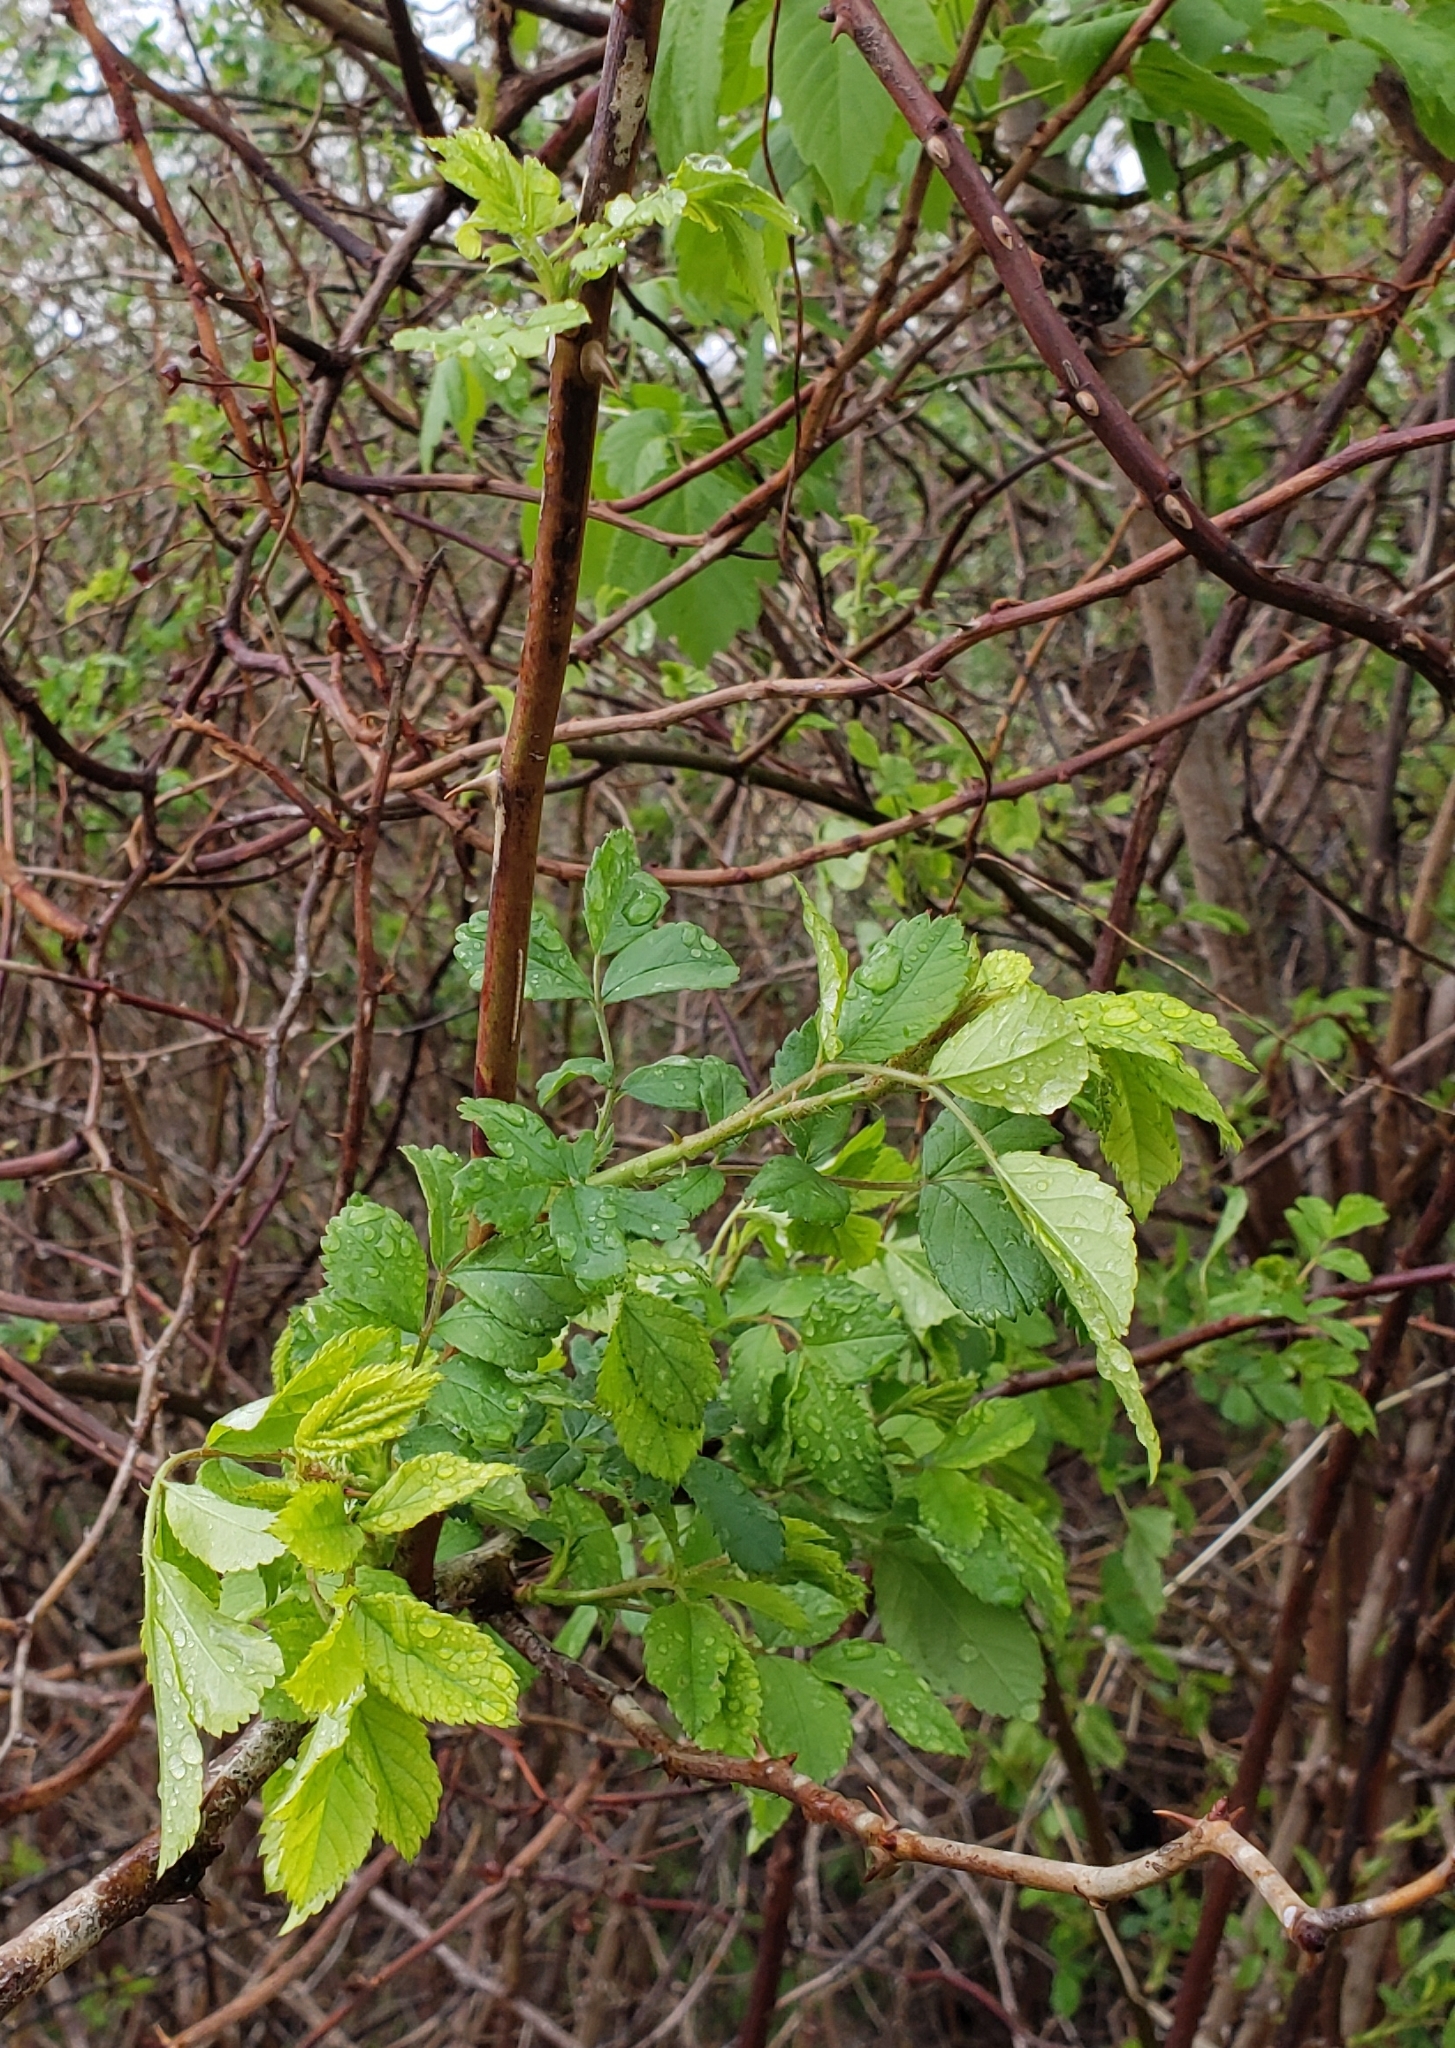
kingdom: Plantae
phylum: Tracheophyta
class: Magnoliopsida
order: Rosales
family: Rosaceae
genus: Rosa
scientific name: Rosa multiflora
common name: Multiflora rose
